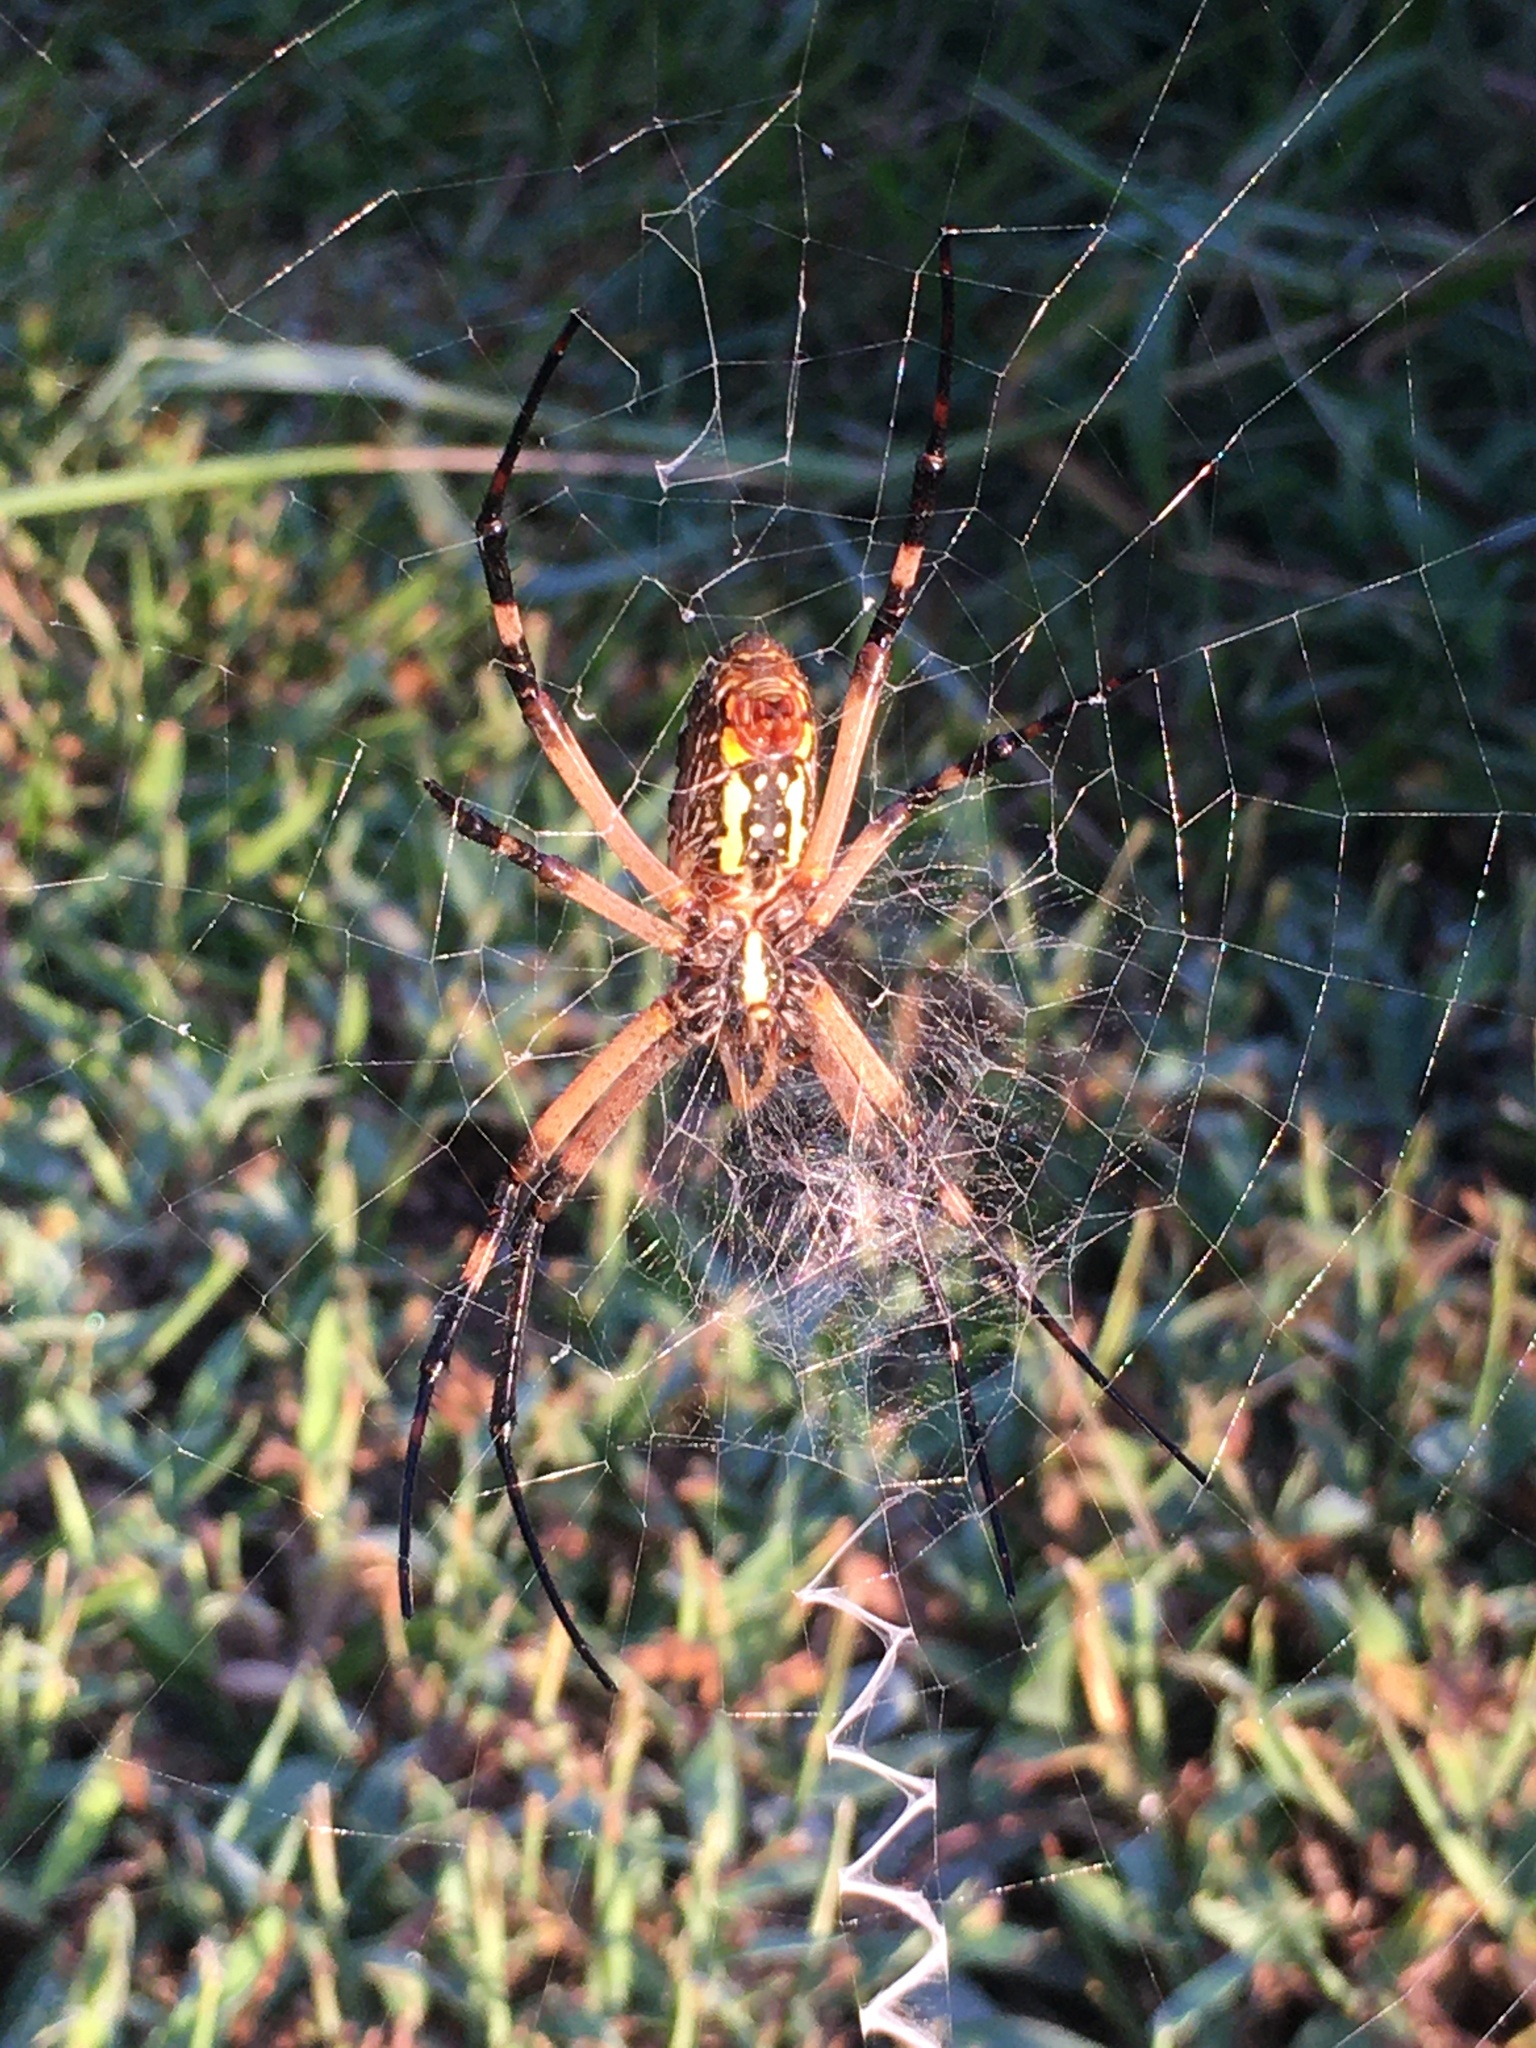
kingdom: Animalia
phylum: Arthropoda
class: Arachnida
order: Araneae
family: Araneidae
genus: Argiope
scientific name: Argiope aurantia
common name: Orb weavers
